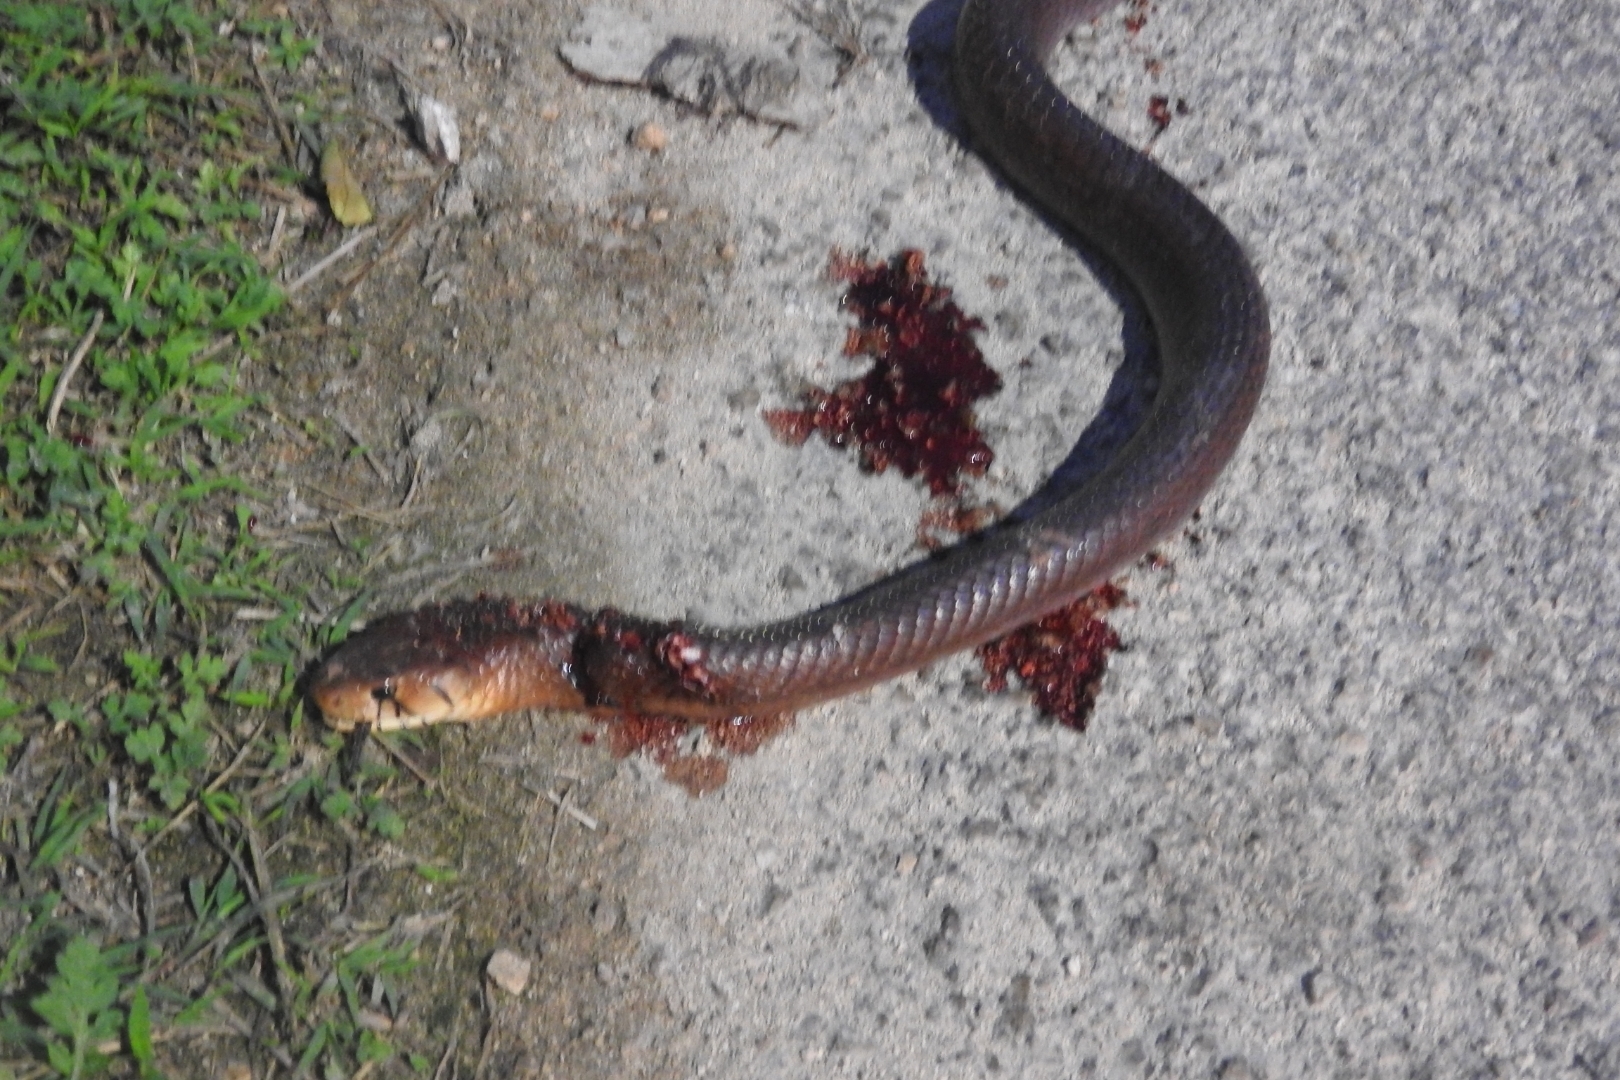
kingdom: Animalia
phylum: Chordata
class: Squamata
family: Colubridae
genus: Drymarchon
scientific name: Drymarchon melanurus
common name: Central american indigo snake
